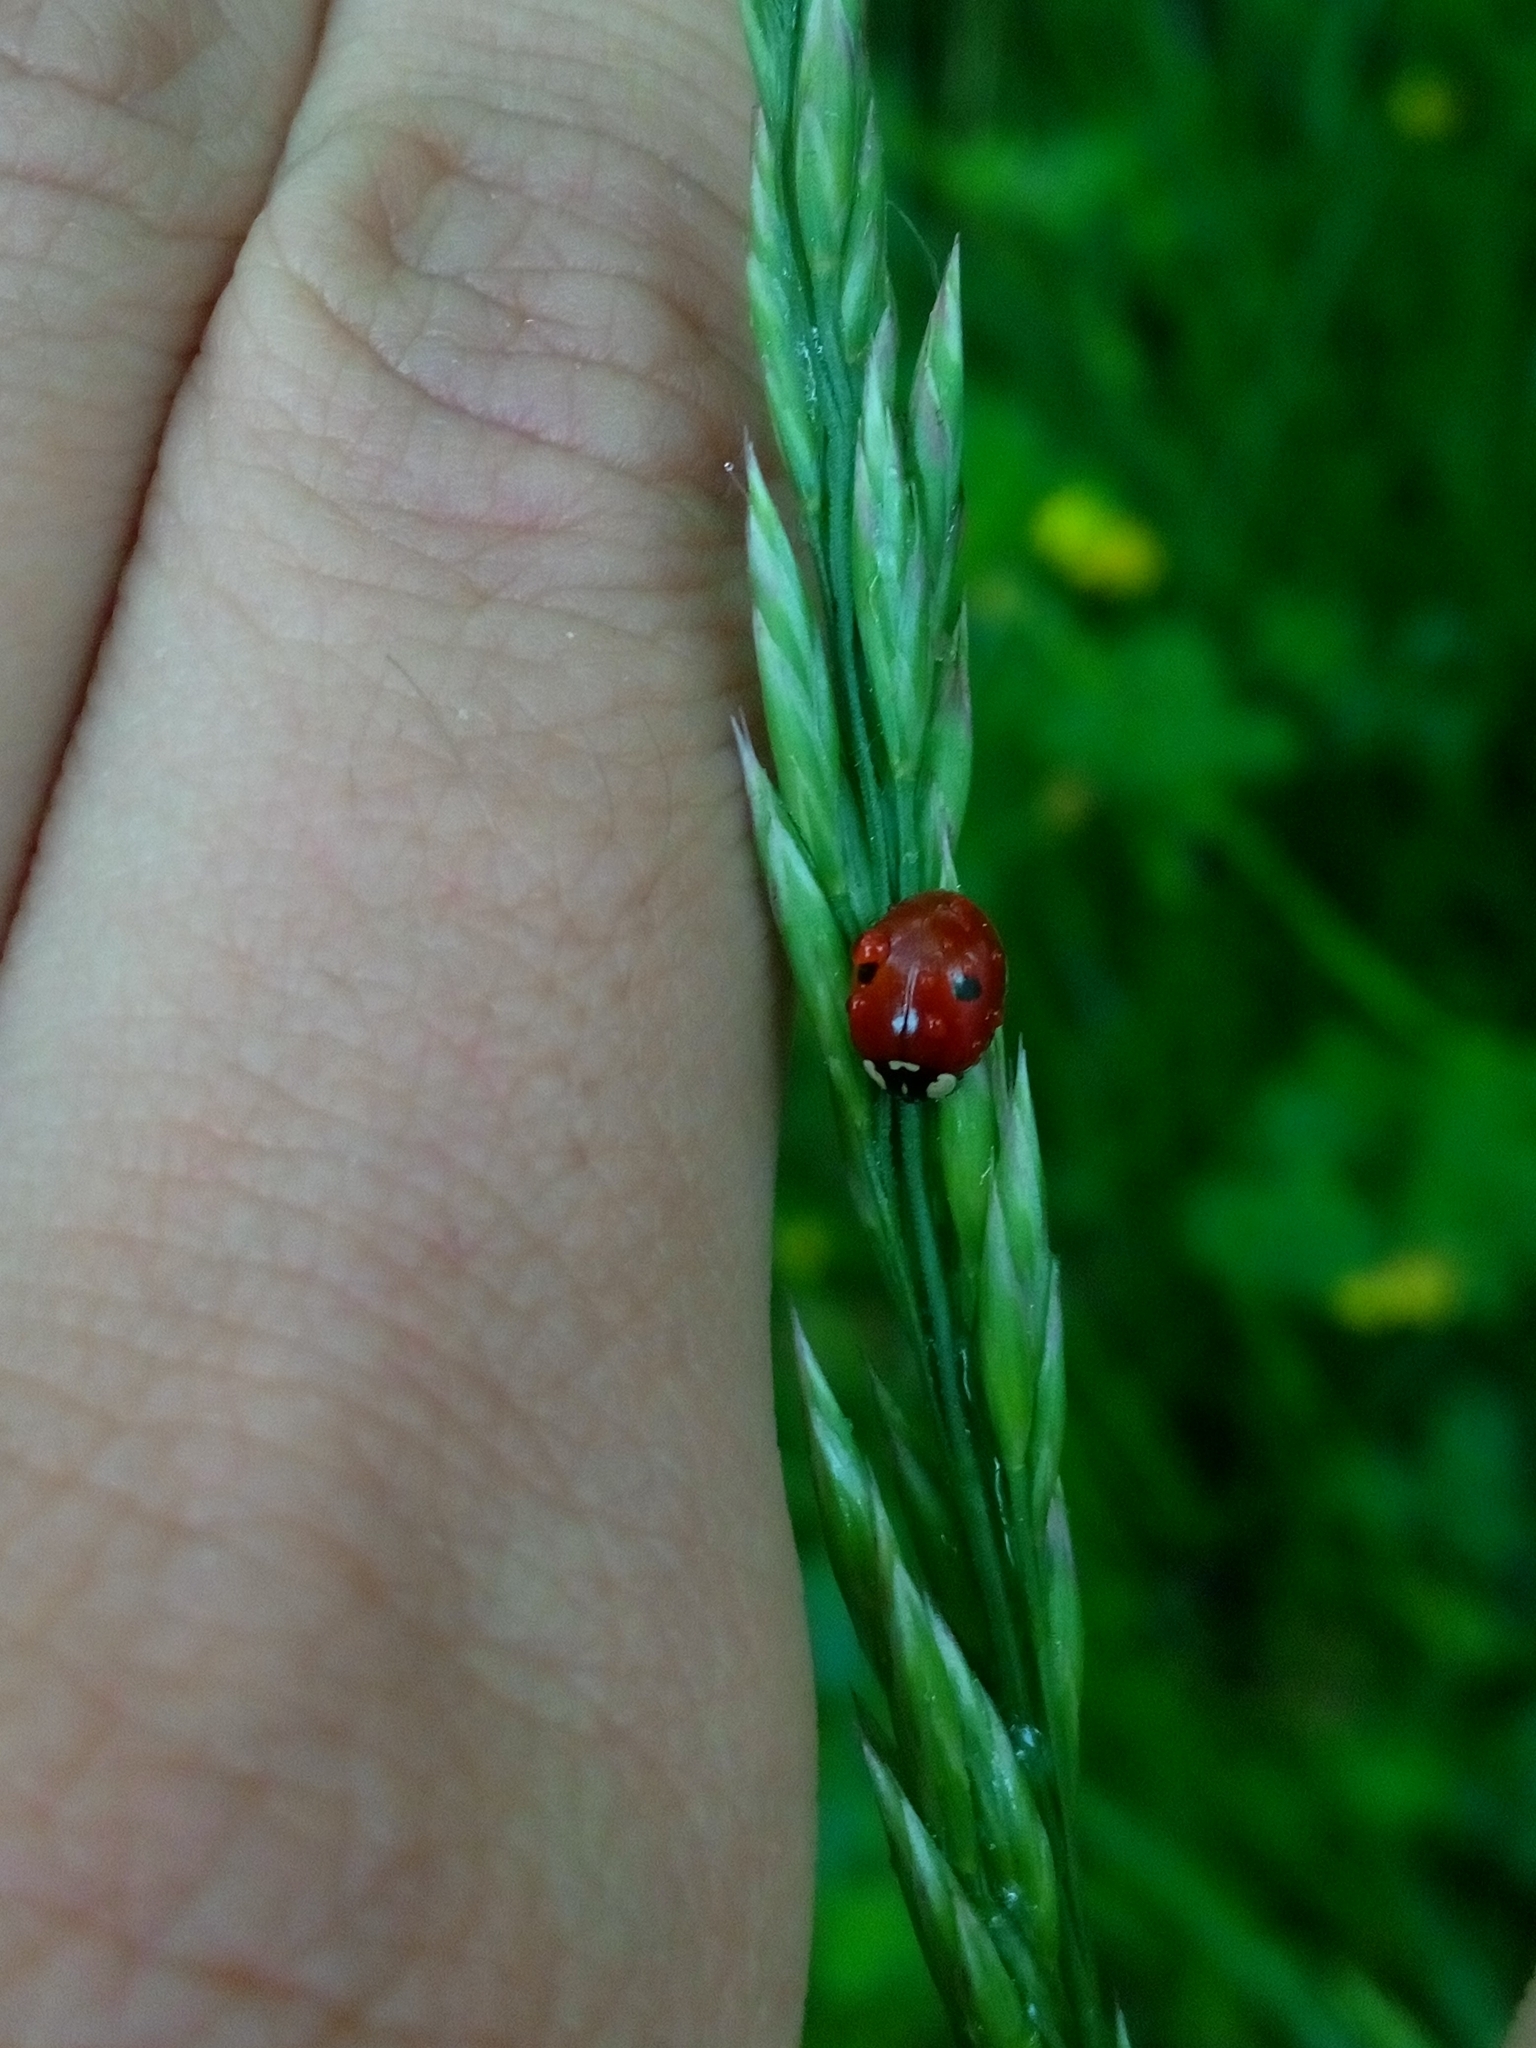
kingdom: Animalia
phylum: Arthropoda
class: Insecta
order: Coleoptera
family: Coccinellidae
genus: Adalia
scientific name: Adalia bipunctata
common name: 2-spot ladybird
